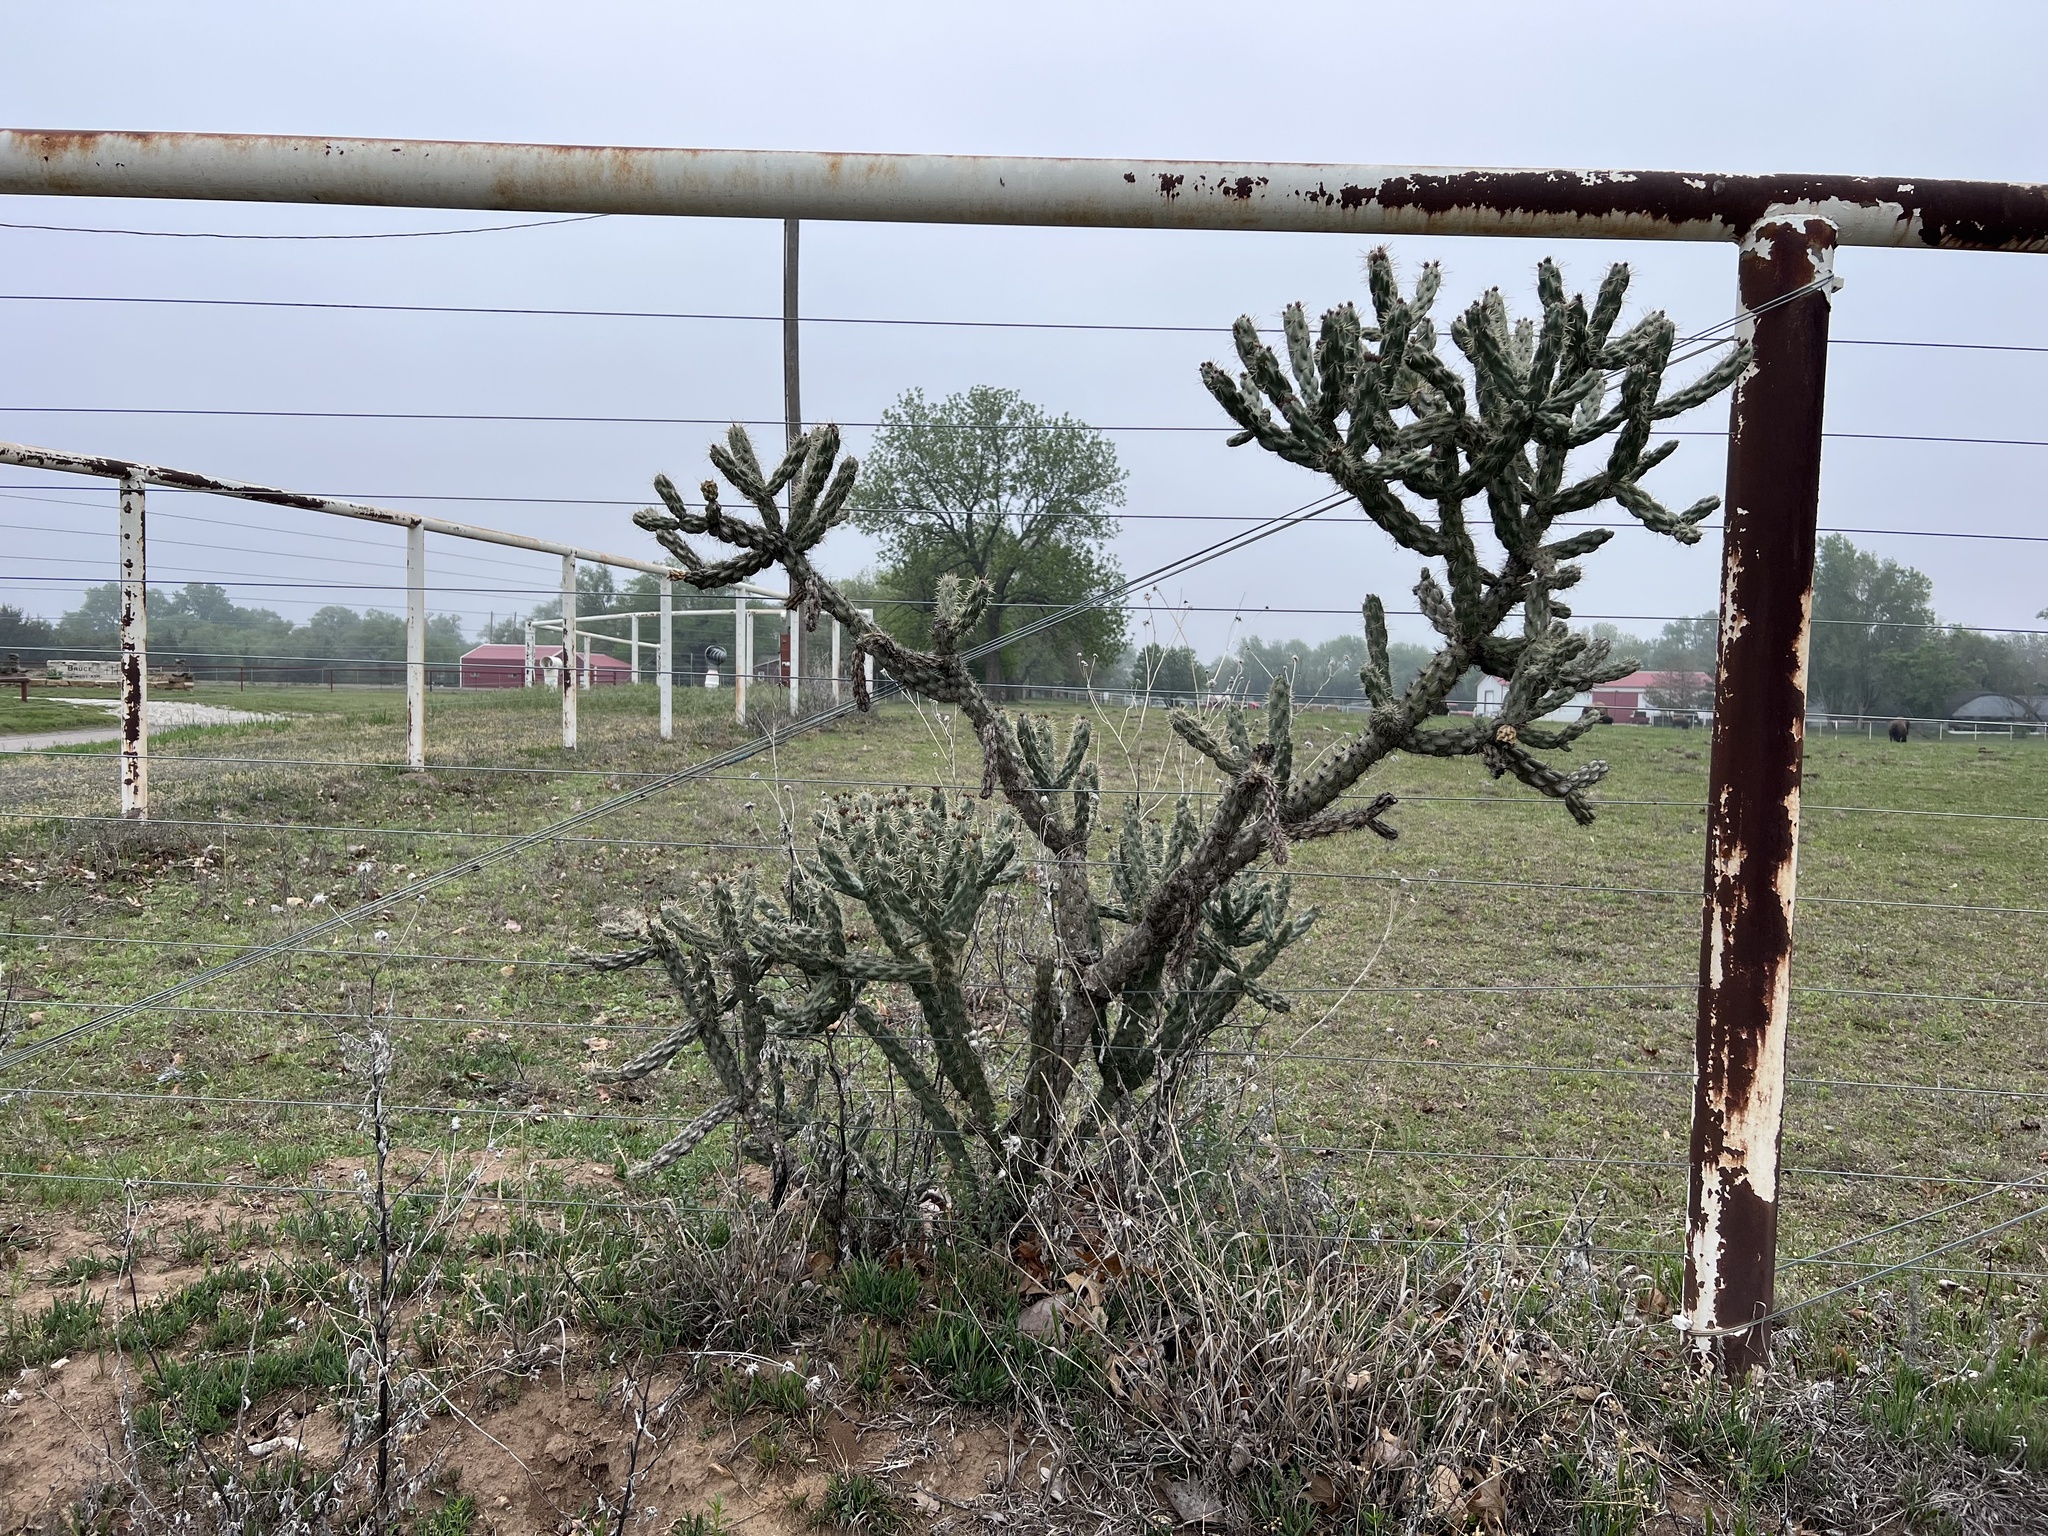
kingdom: Plantae
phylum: Tracheophyta
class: Magnoliopsida
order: Caryophyllales
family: Cactaceae
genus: Cylindropuntia
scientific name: Cylindropuntia imbricata
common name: Candelabrum cactus
